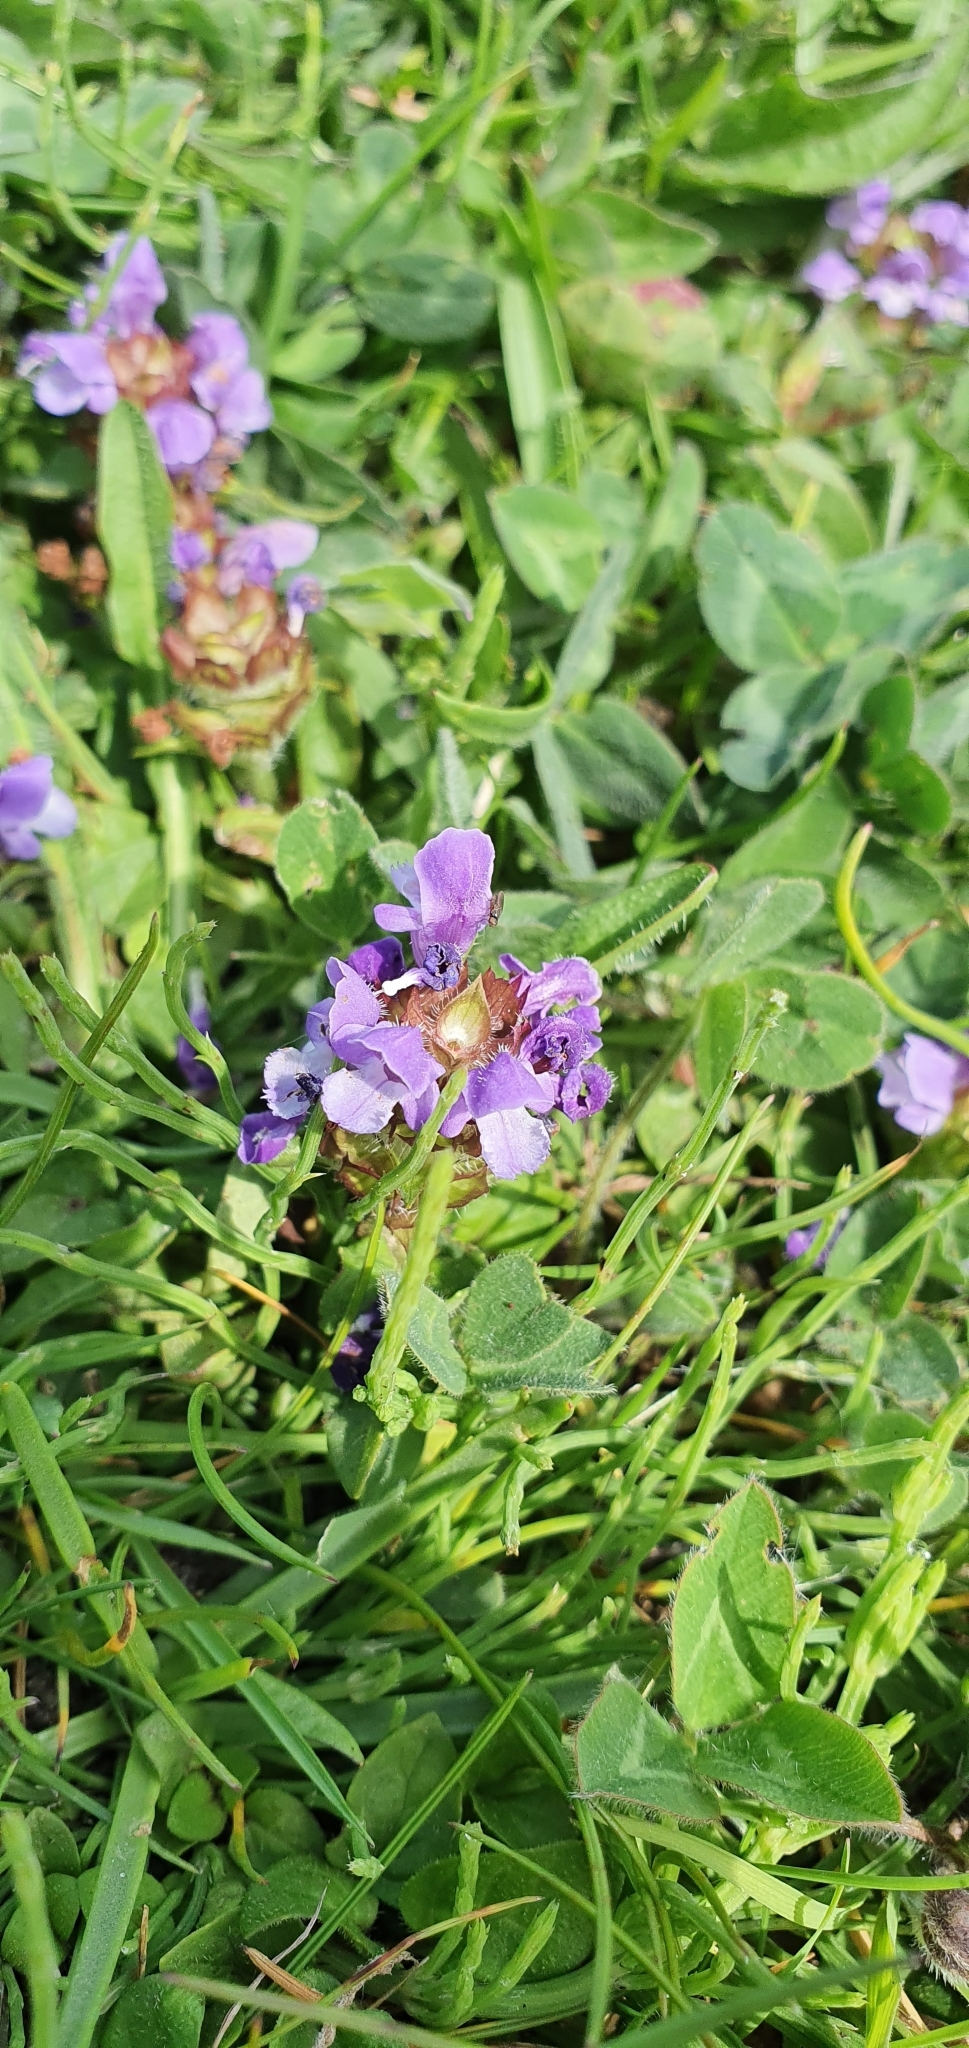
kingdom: Plantae
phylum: Tracheophyta
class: Magnoliopsida
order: Lamiales
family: Lamiaceae
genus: Prunella
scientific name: Prunella vulgaris
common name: Heal-all
